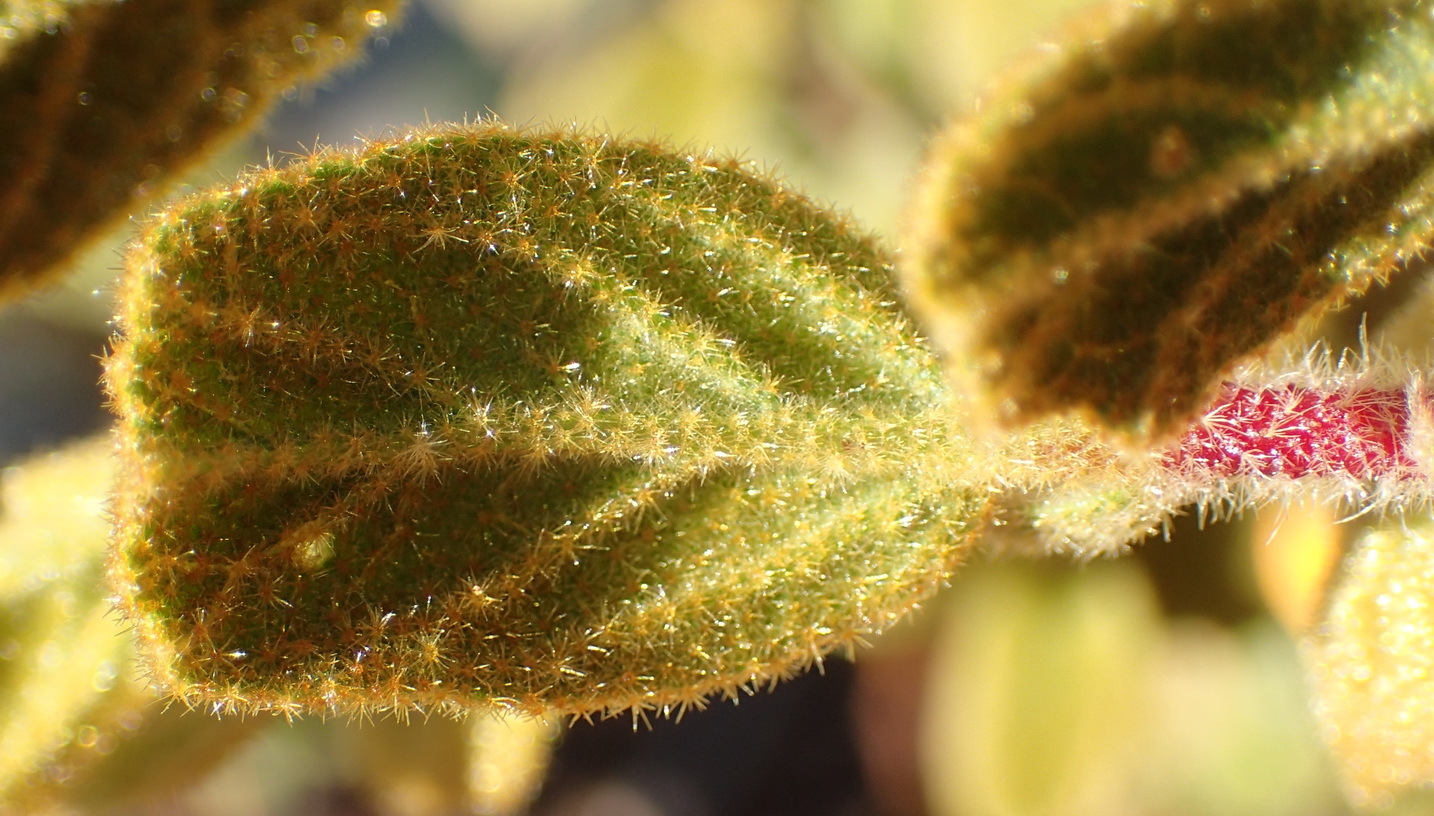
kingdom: Plantae
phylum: Tracheophyta
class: Magnoliopsida
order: Malvales
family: Malvaceae
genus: Hermannia
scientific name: Hermannia salviifolia
